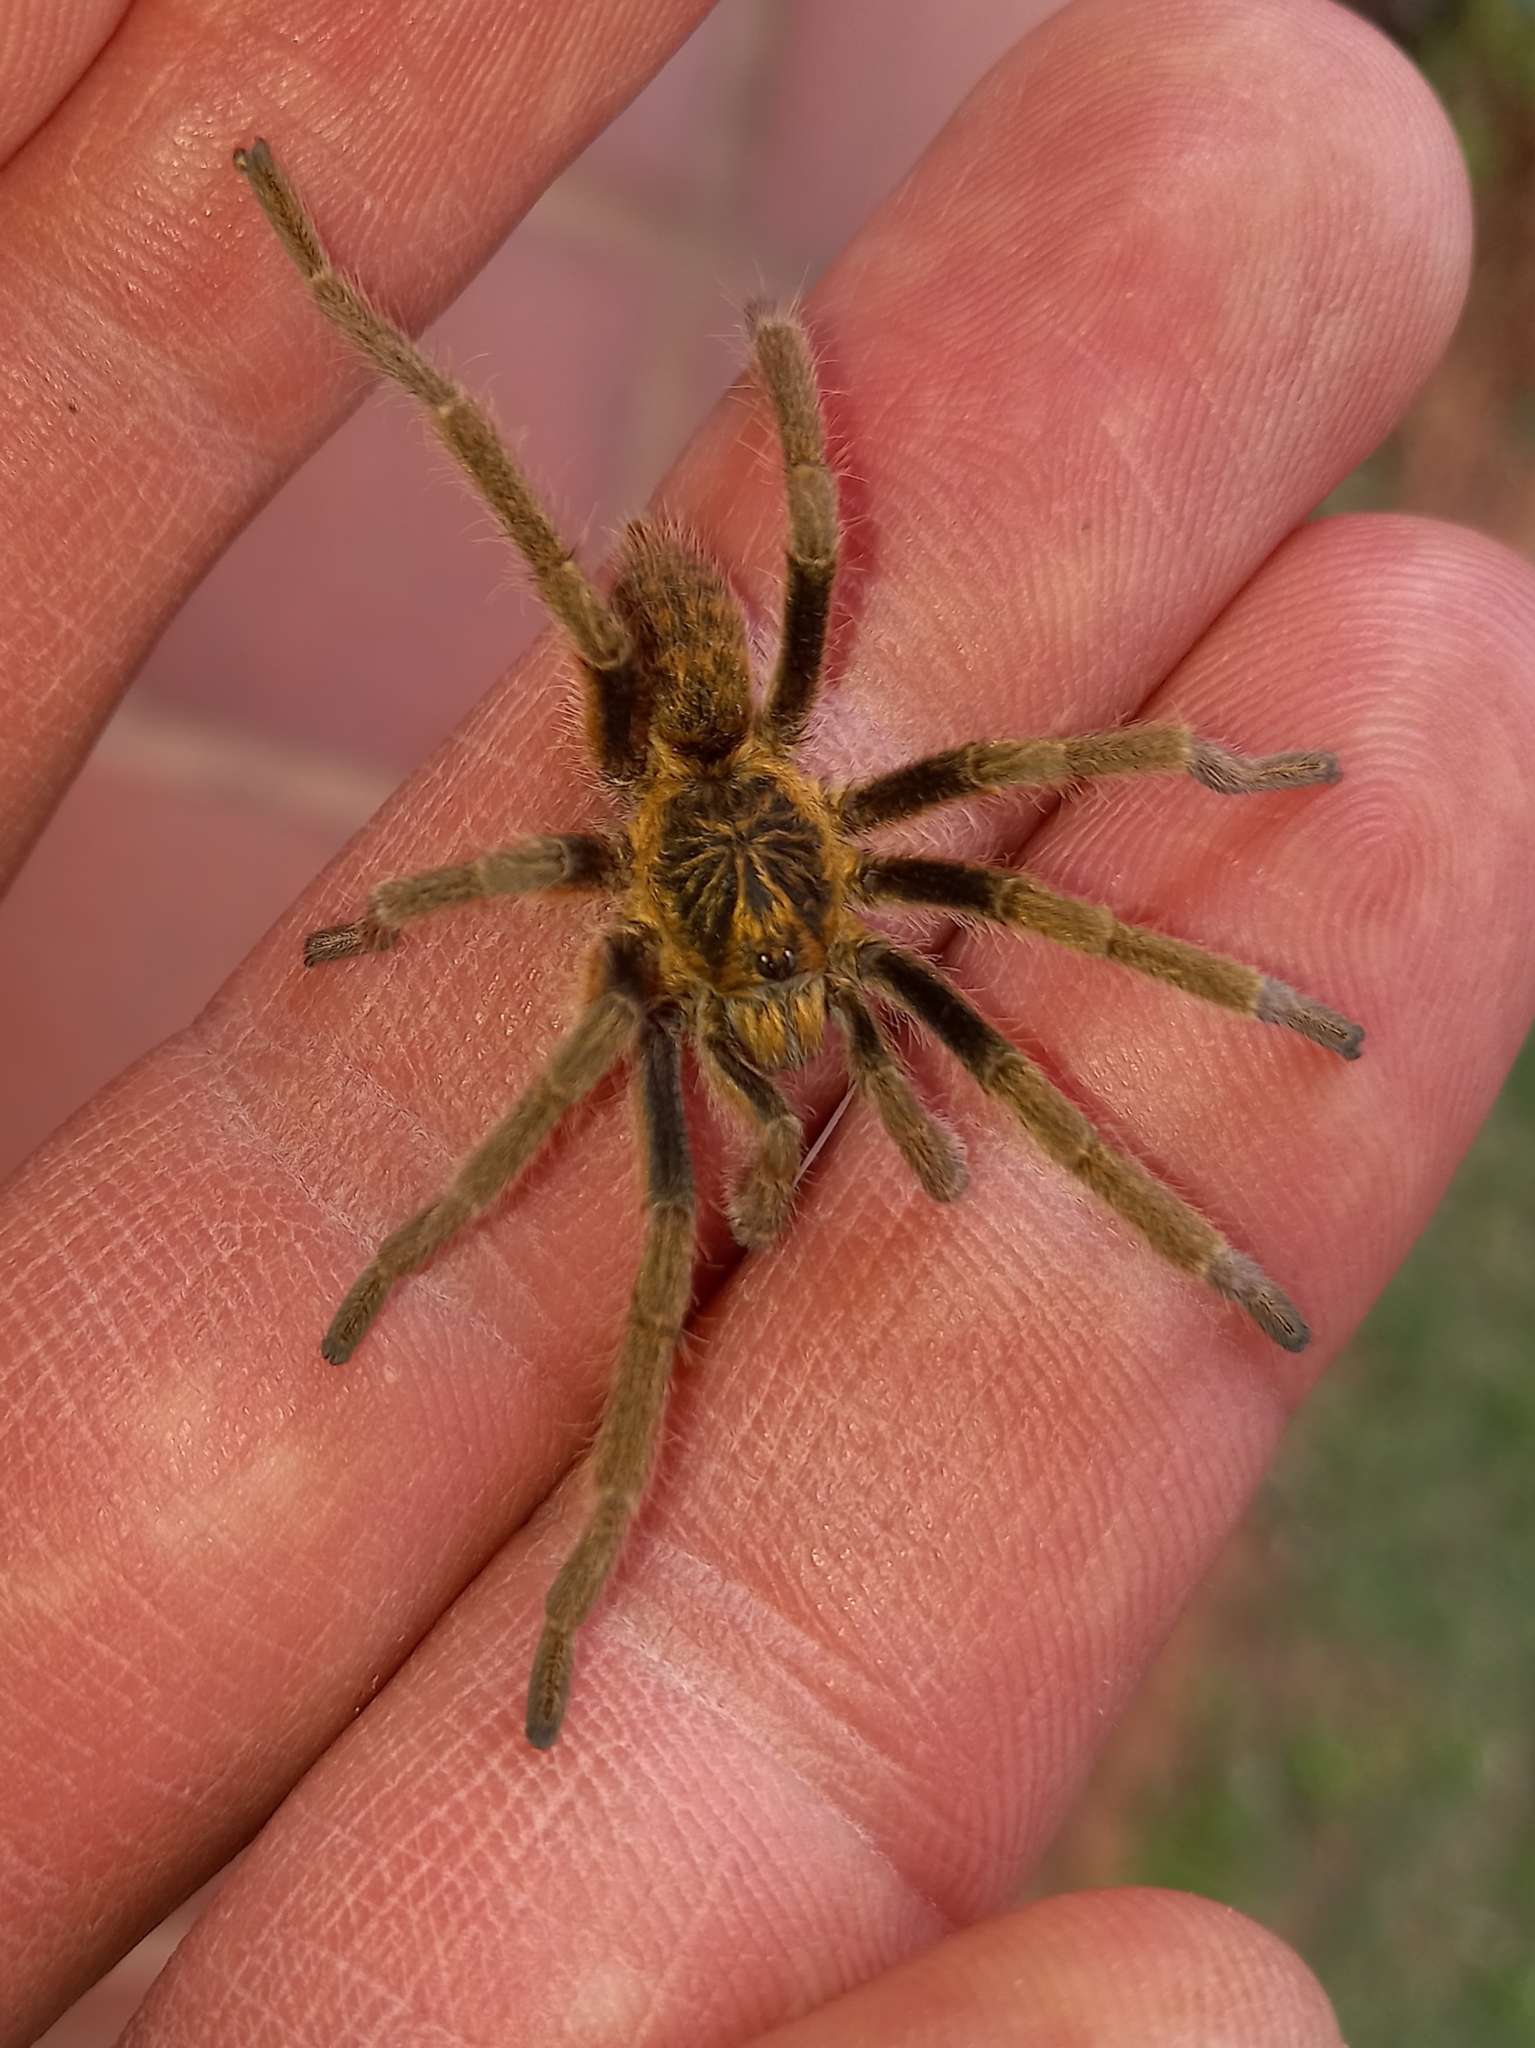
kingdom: Animalia
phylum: Arthropoda
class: Arachnida
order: Araneae
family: Theraphosidae
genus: Harpactirella
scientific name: Harpactirella magna
